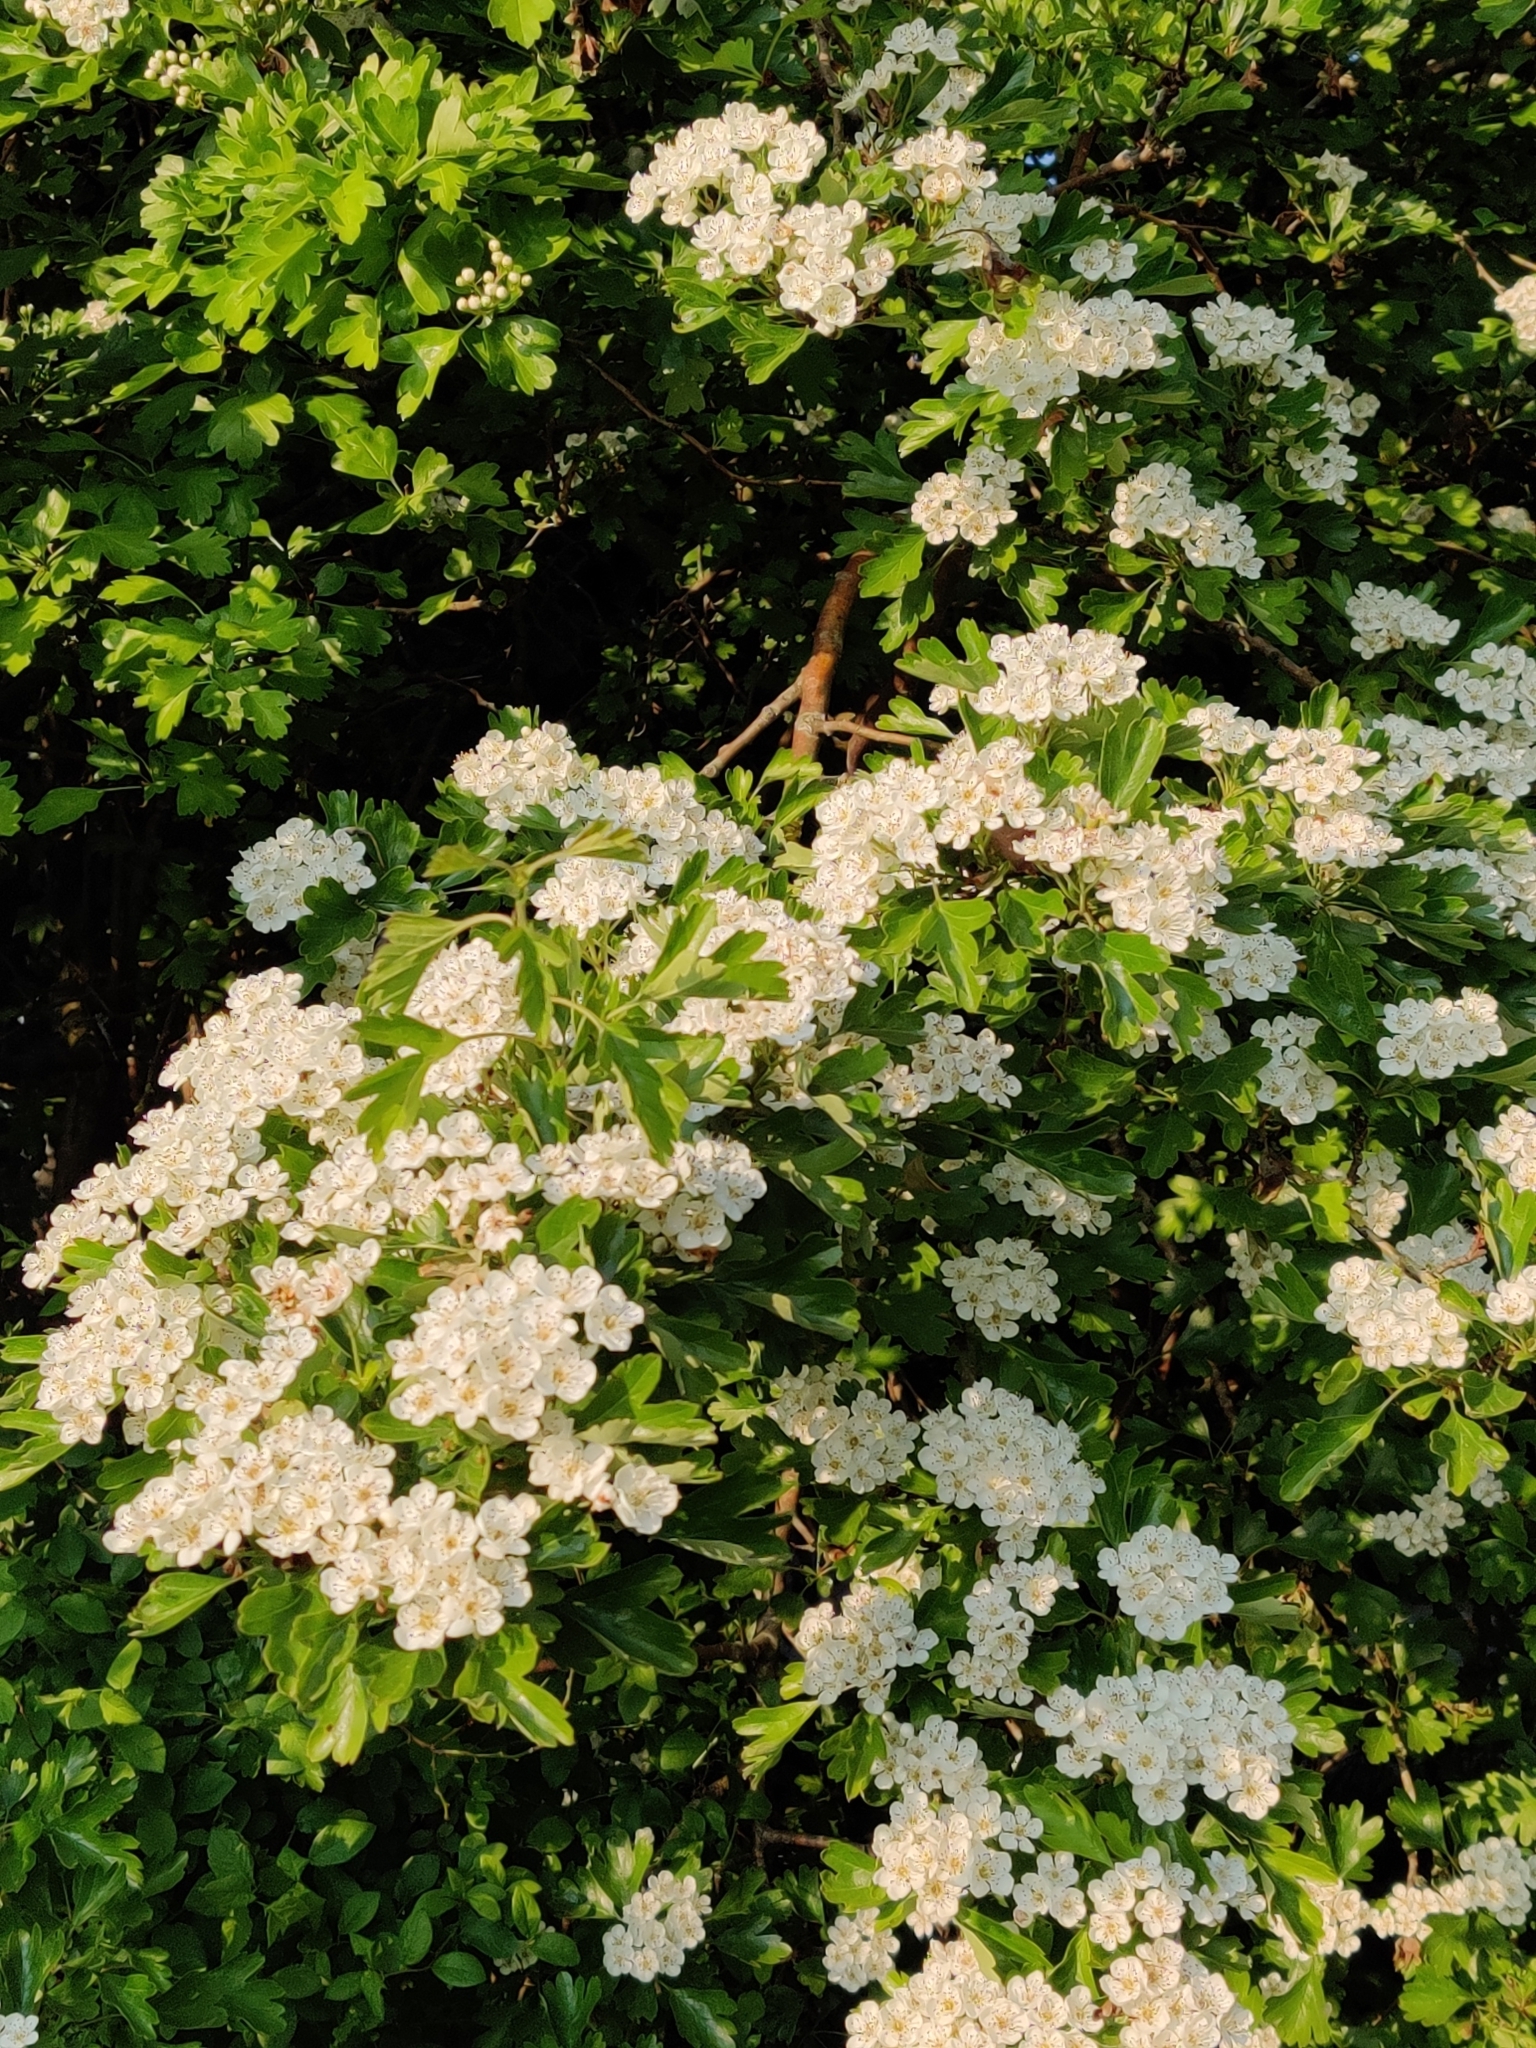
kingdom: Plantae
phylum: Tracheophyta
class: Magnoliopsida
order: Rosales
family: Rosaceae
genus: Crataegus
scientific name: Crataegus monogyna
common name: Hawthorn
